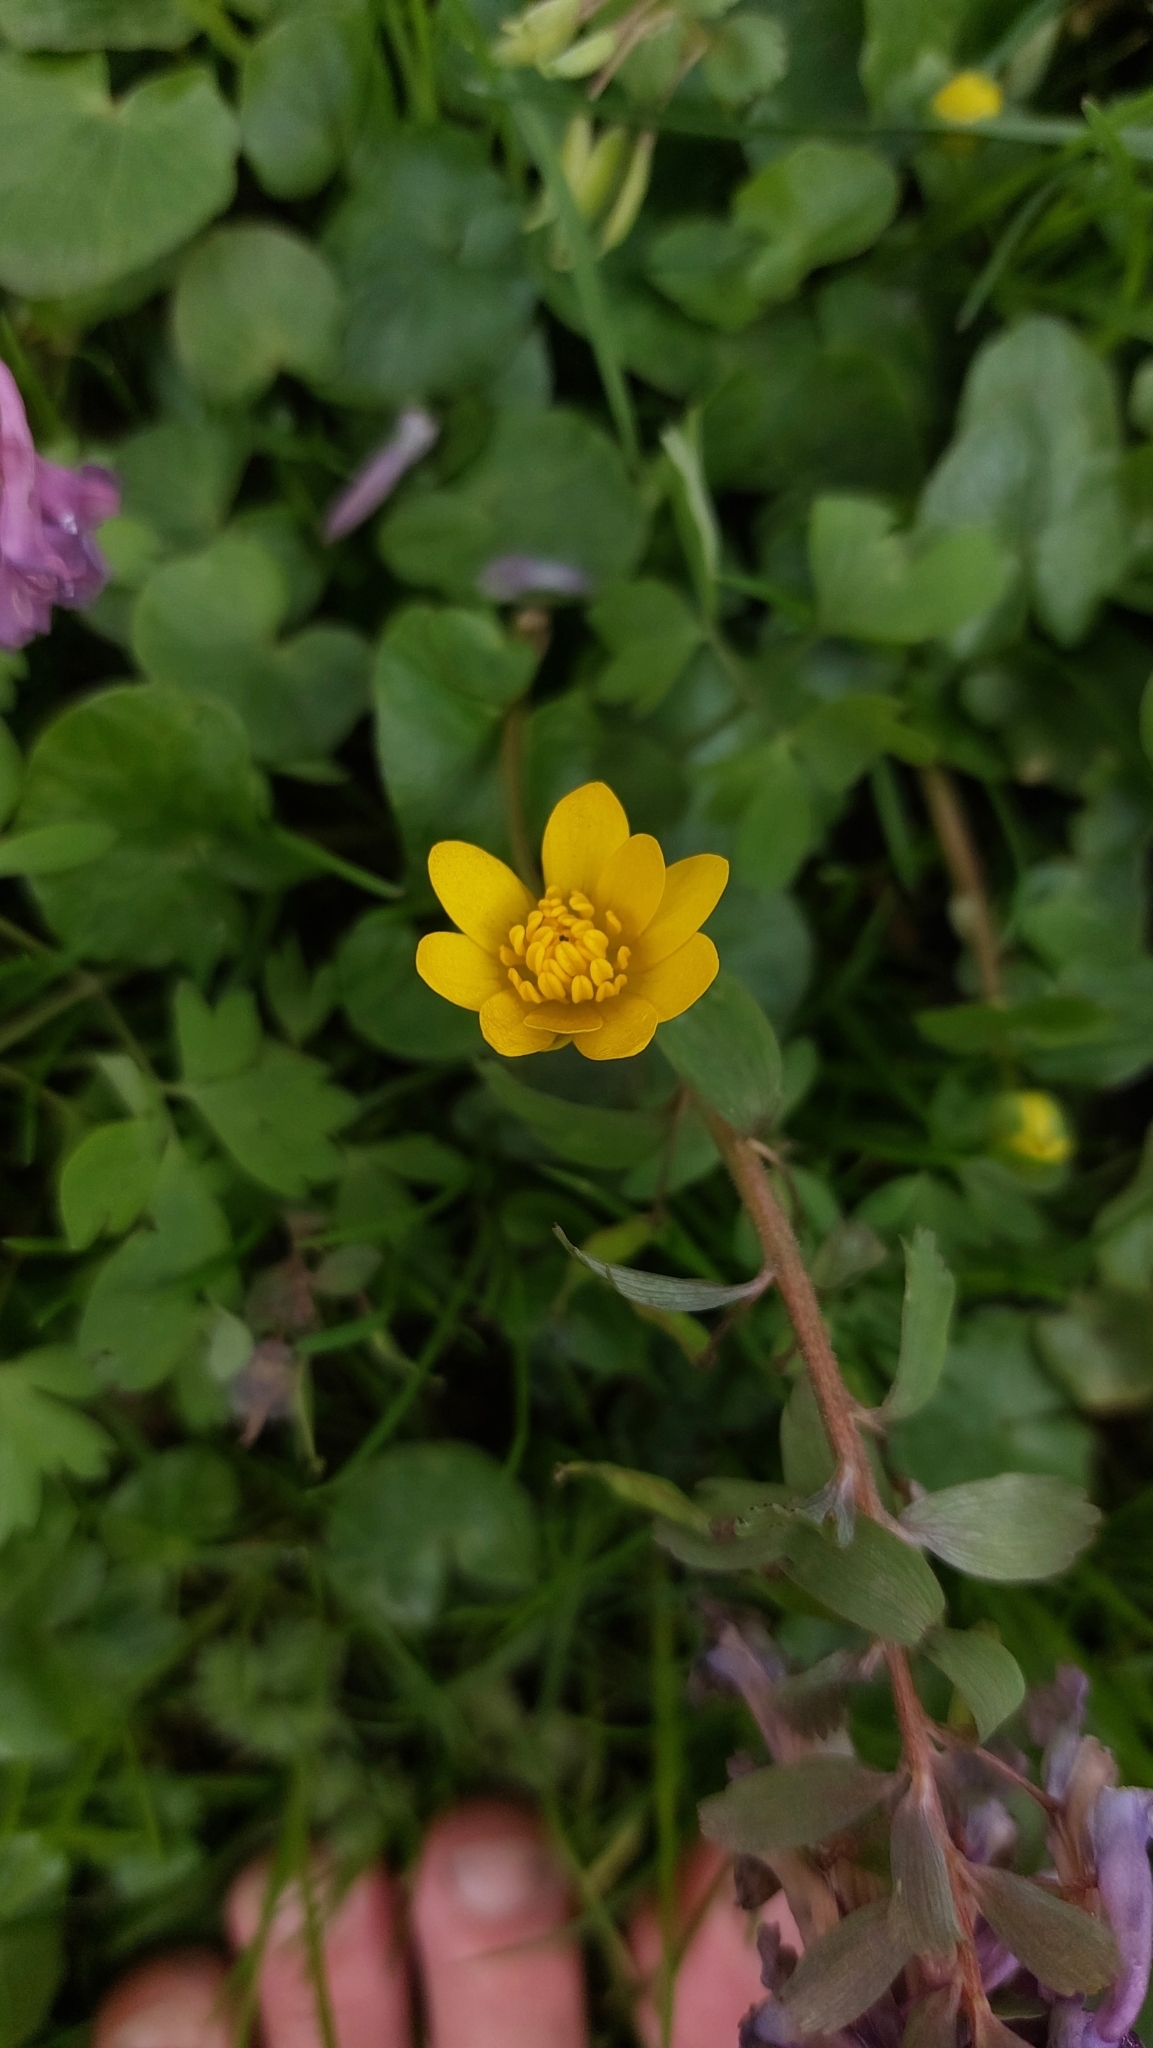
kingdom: Plantae
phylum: Tracheophyta
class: Magnoliopsida
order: Ranunculales
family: Ranunculaceae
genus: Ficaria
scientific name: Ficaria verna
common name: Lesser celandine
